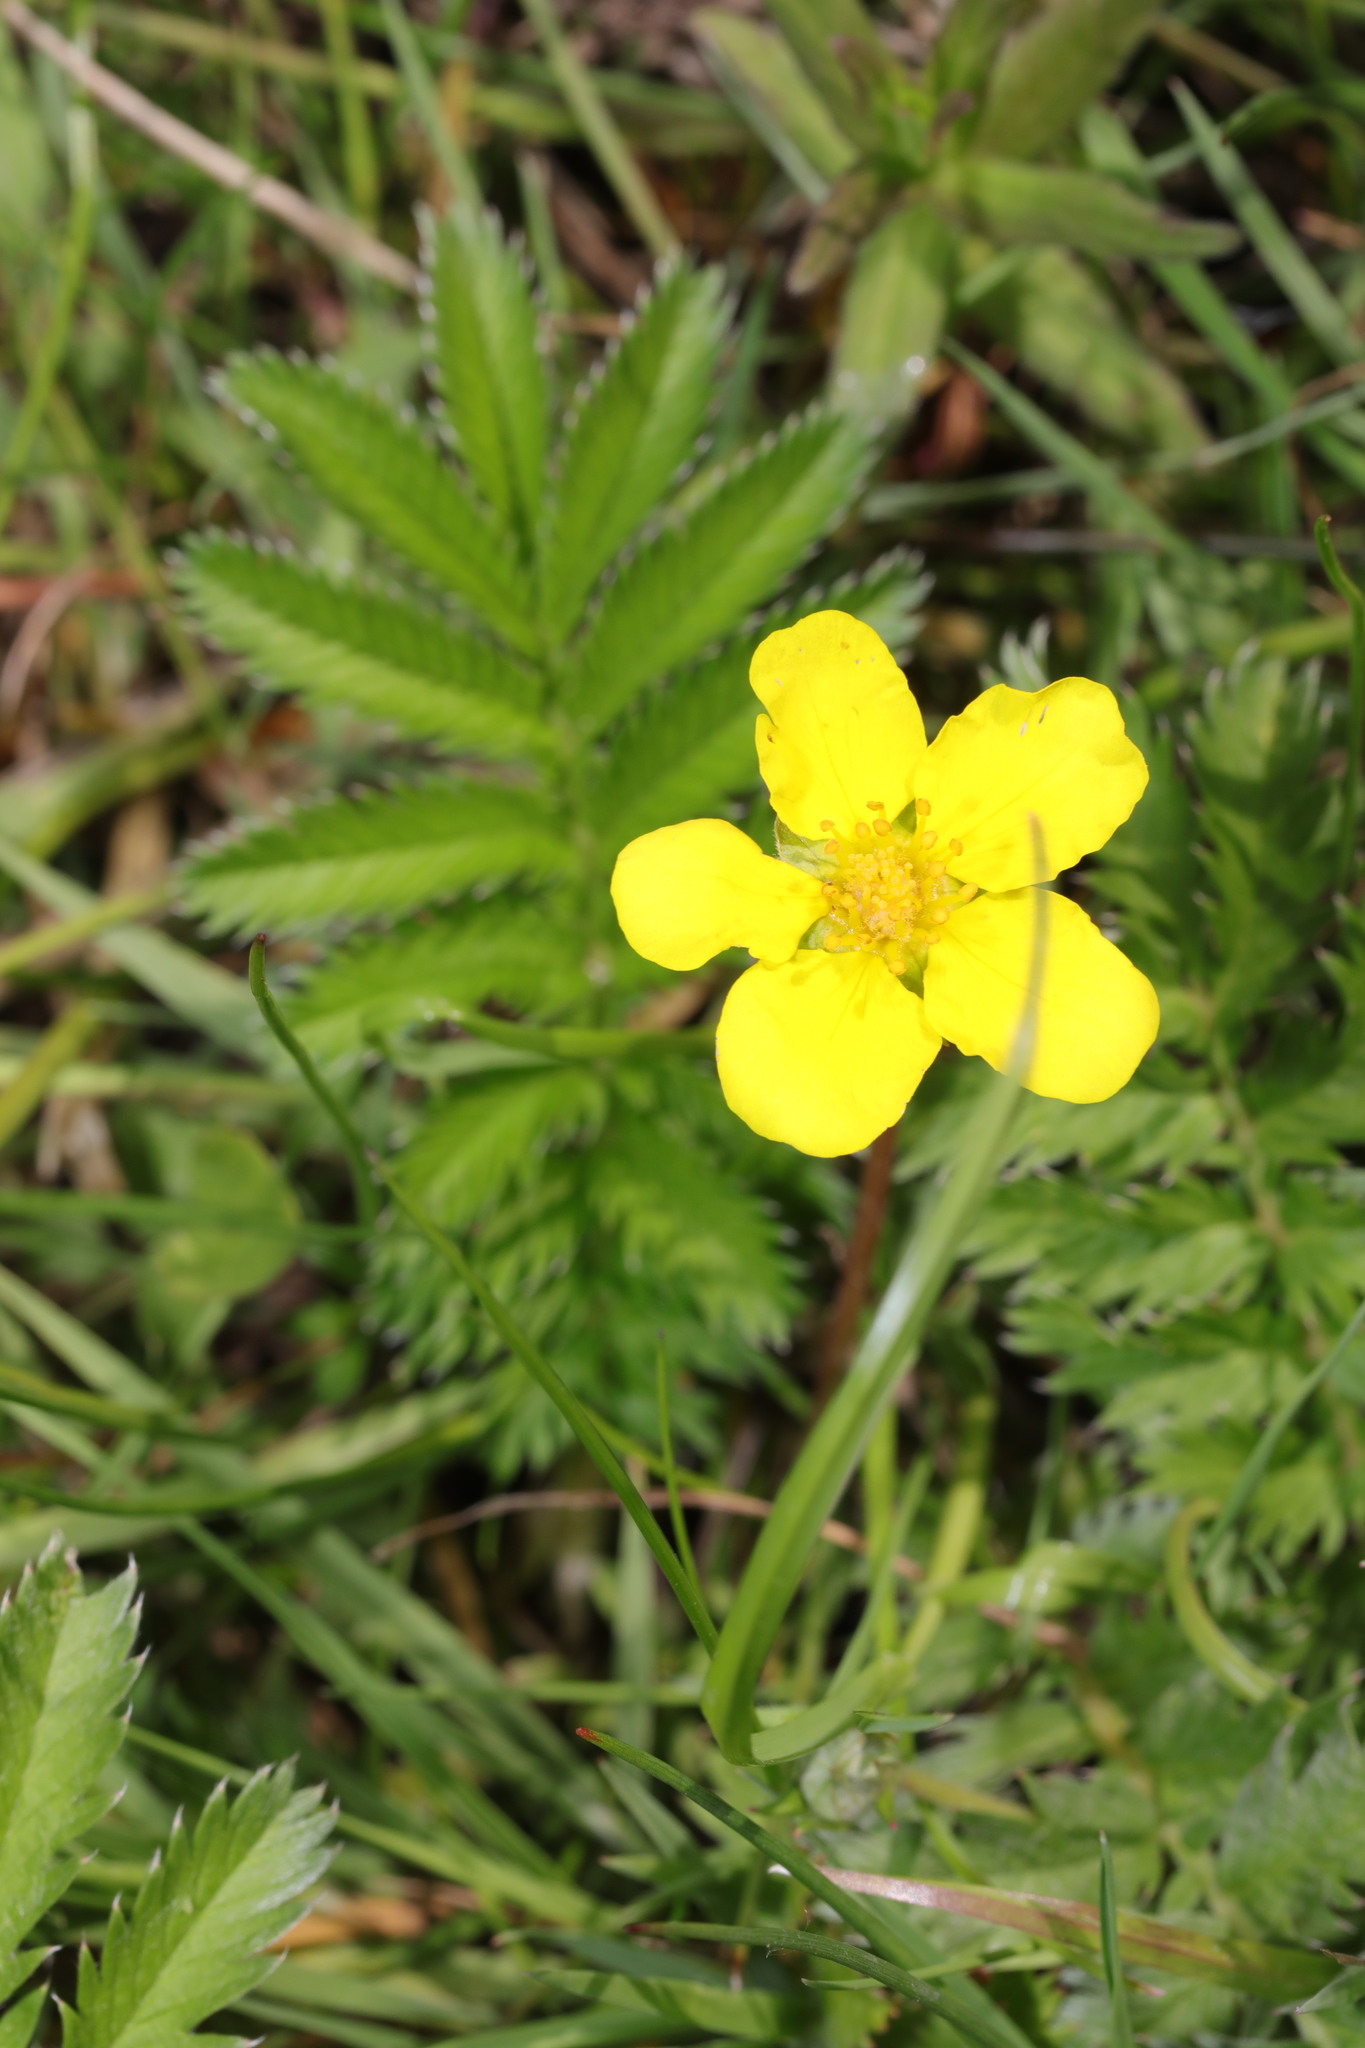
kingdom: Plantae
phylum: Tracheophyta
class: Magnoliopsida
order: Rosales
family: Rosaceae
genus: Argentina
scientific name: Argentina anserina
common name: Common silverweed
